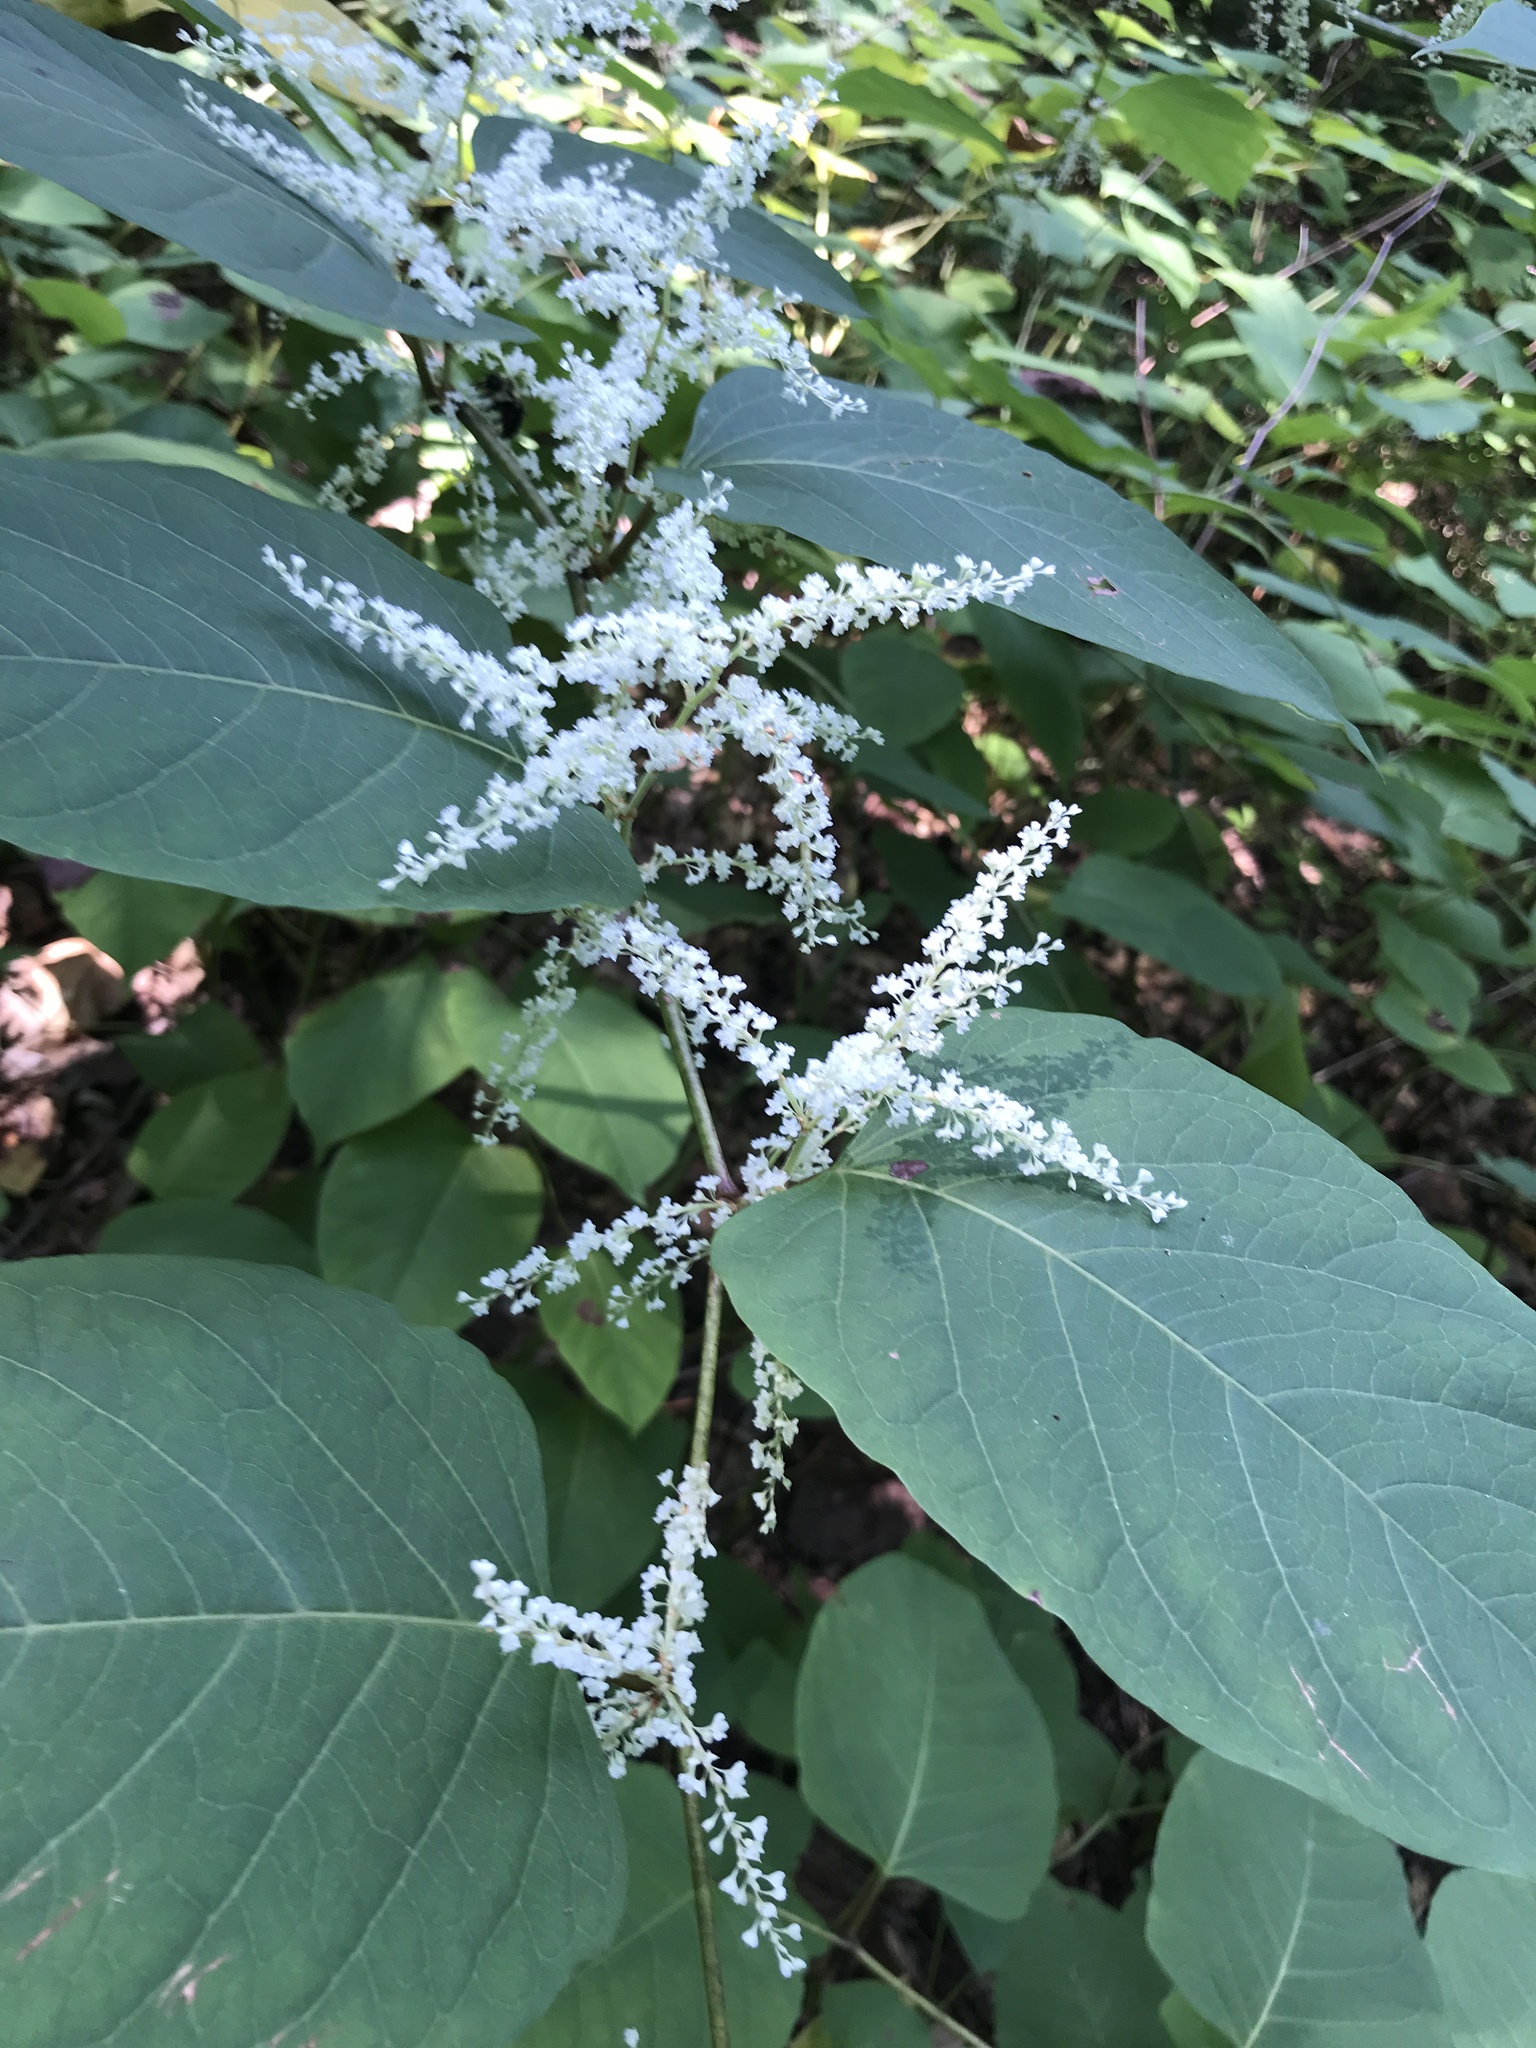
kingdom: Plantae
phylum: Tracheophyta
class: Magnoliopsida
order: Caryophyllales
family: Polygonaceae
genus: Reynoutria
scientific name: Reynoutria japonica
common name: Japanese knotweed
